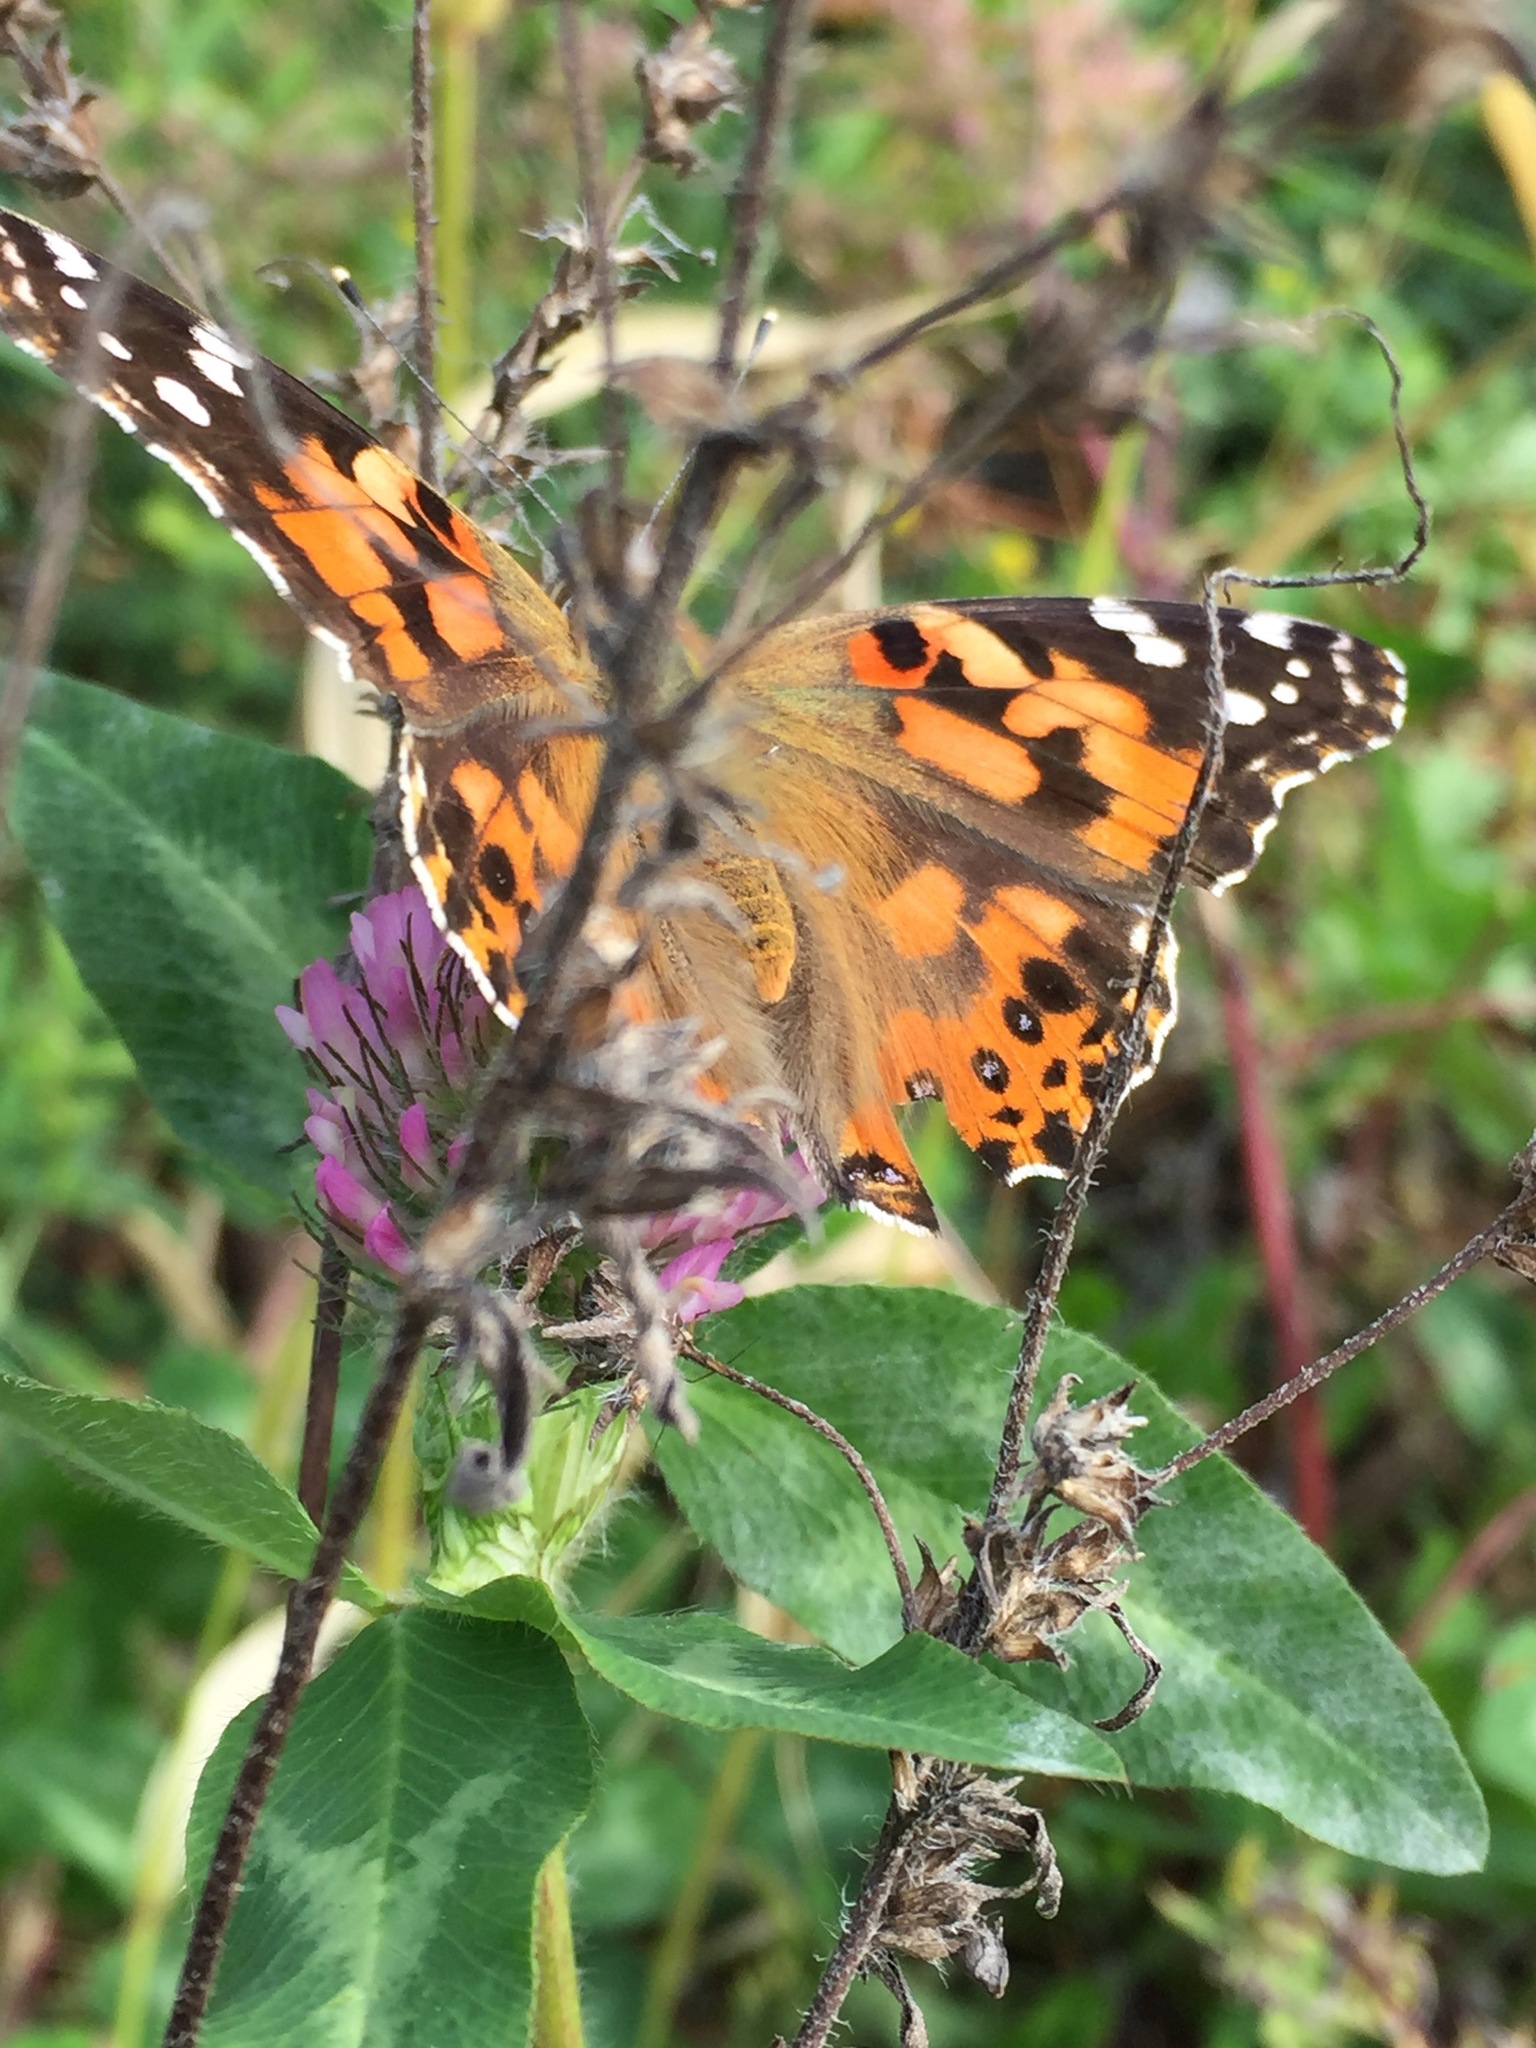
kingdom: Animalia
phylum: Arthropoda
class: Insecta
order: Lepidoptera
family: Nymphalidae
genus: Vanessa
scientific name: Vanessa cardui
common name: Painted lady
